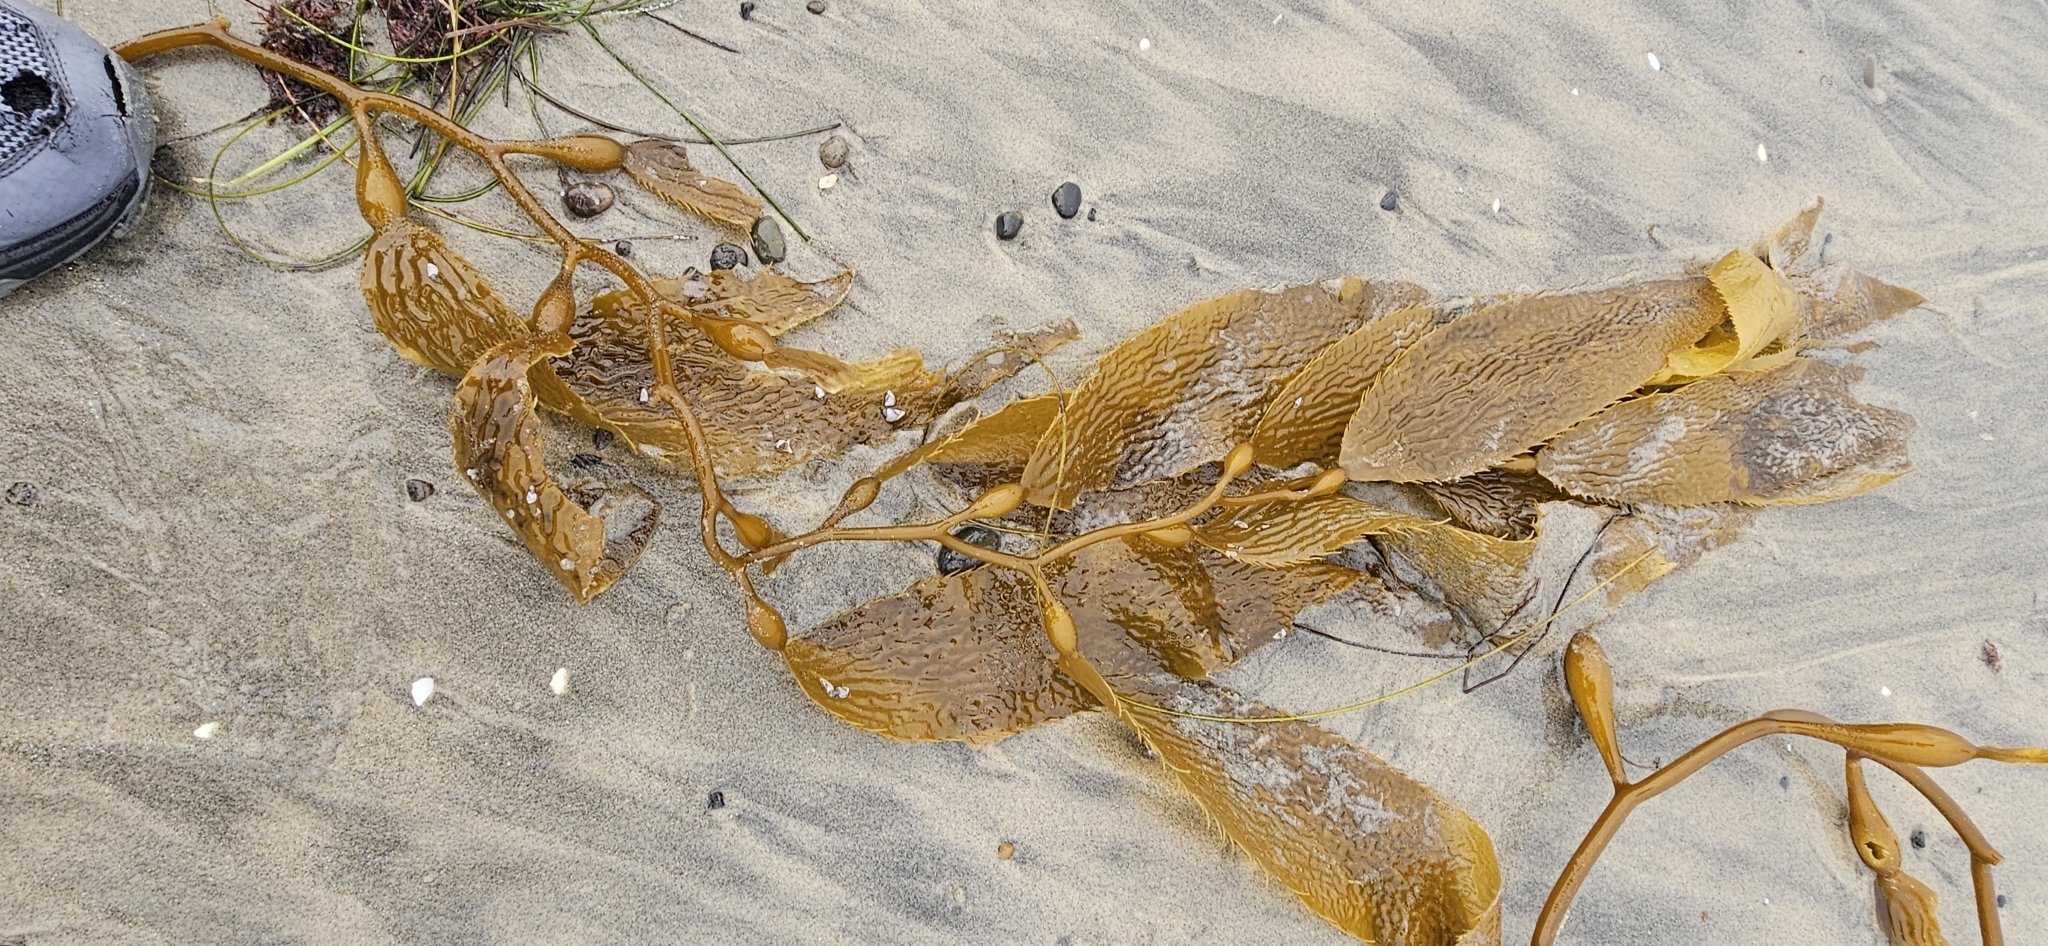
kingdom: Chromista
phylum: Ochrophyta
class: Phaeophyceae
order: Laminariales
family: Laminariaceae
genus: Macrocystis
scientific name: Macrocystis pyrifera
